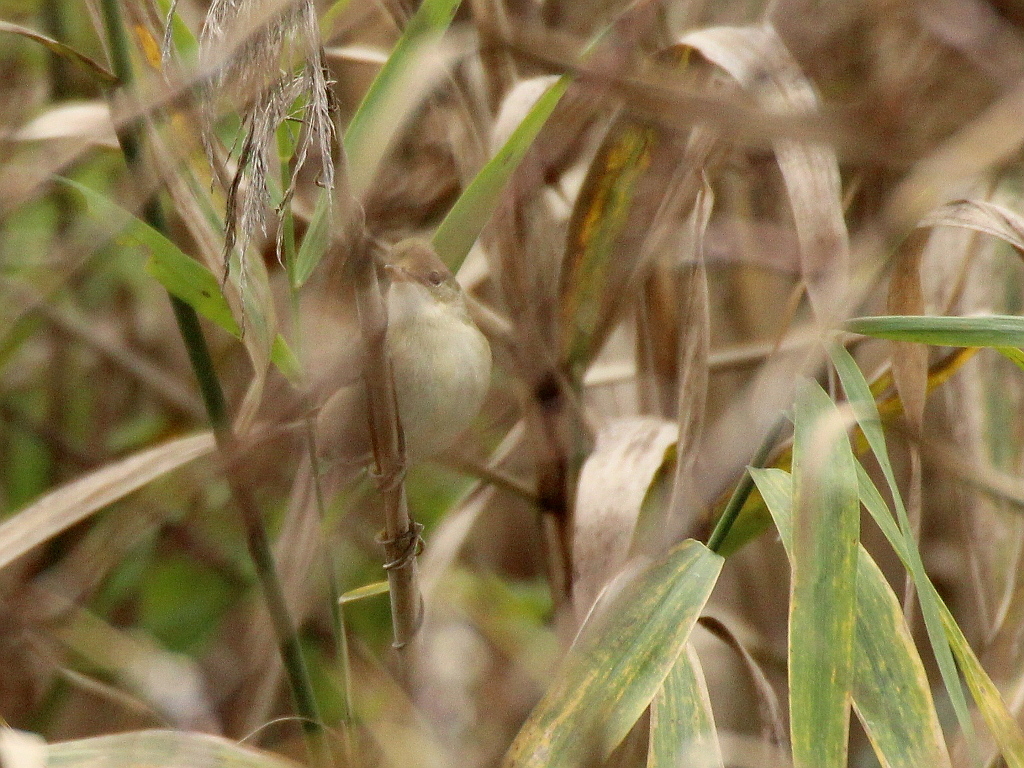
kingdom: Animalia
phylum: Chordata
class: Aves
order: Passeriformes
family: Acrocephalidae
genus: Acrocephalus
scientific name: Acrocephalus dumetorum
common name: Blyth's reed warbler
